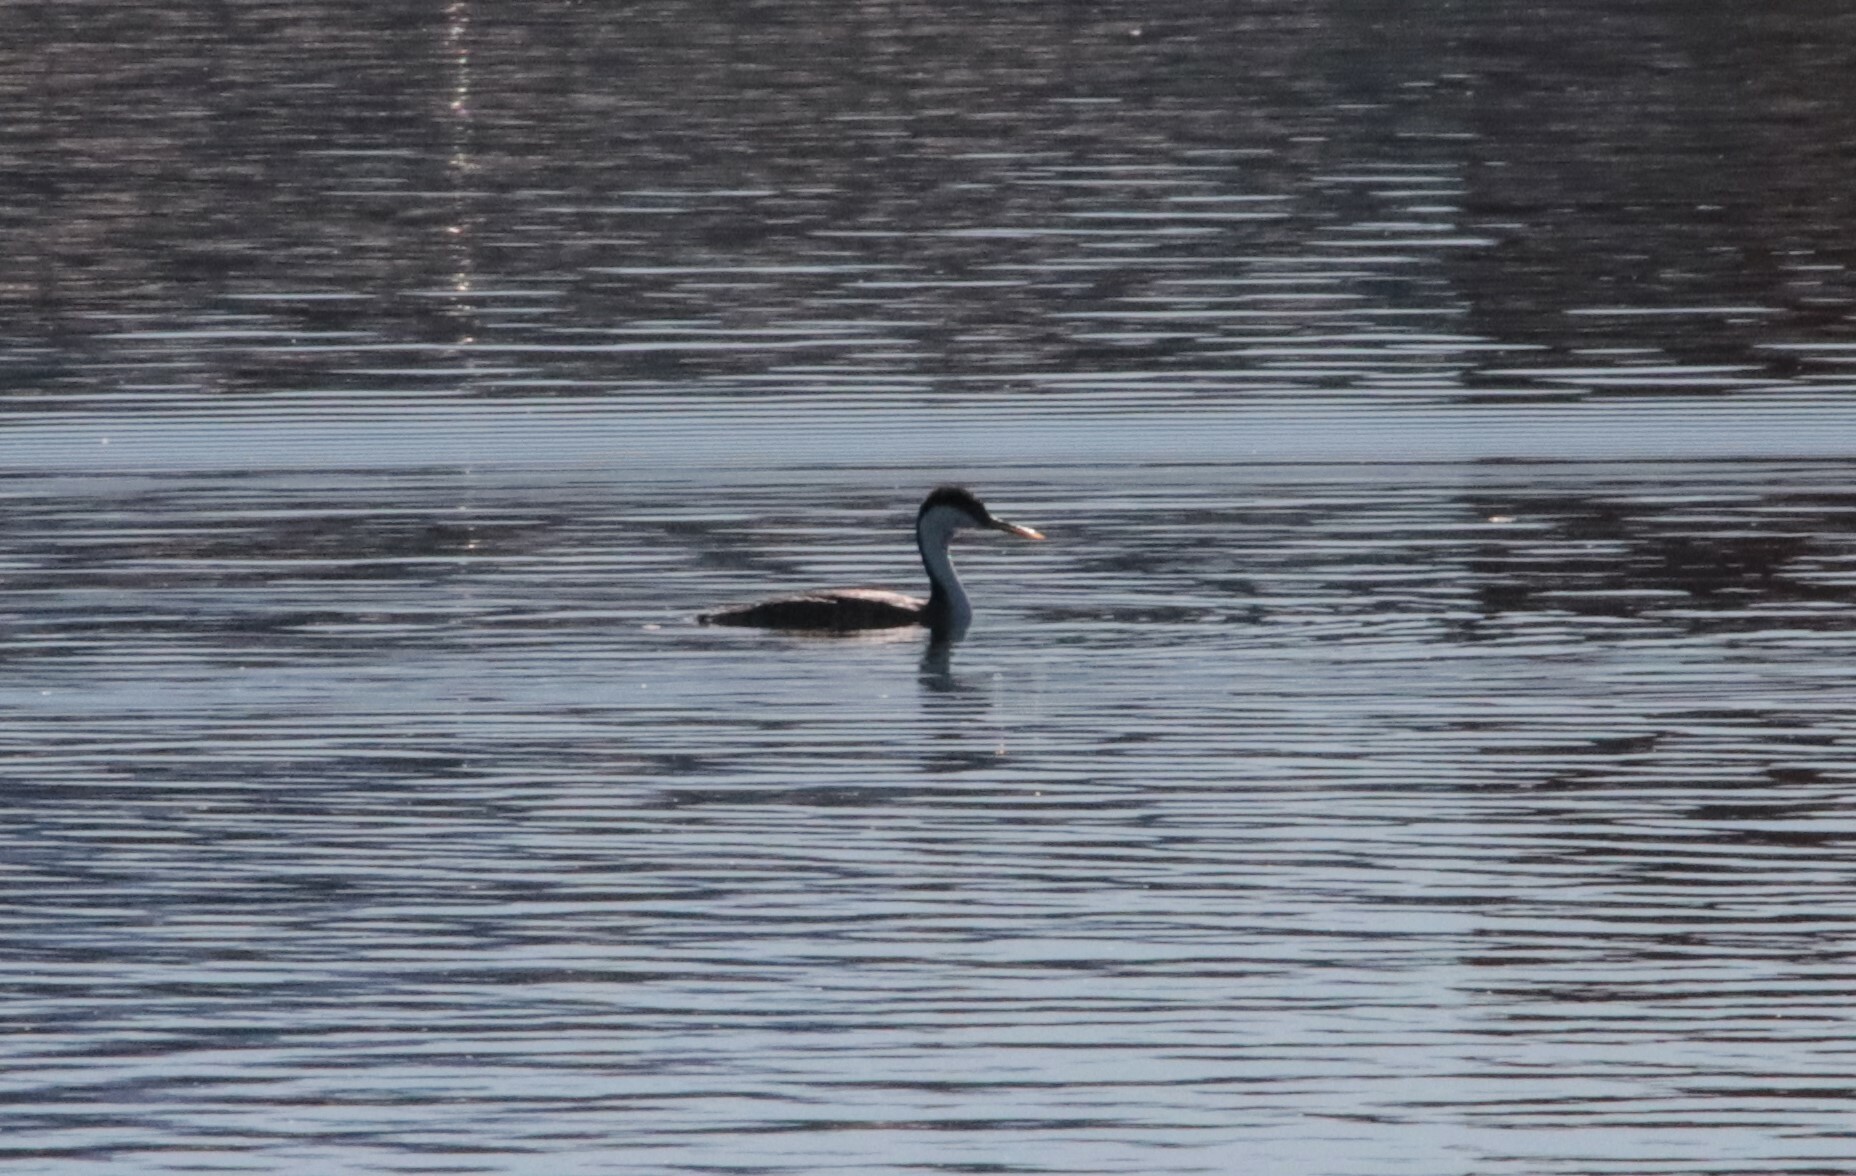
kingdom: Animalia
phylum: Chordata
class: Aves
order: Podicipediformes
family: Podicipedidae
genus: Aechmophorus
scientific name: Aechmophorus occidentalis
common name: Western grebe
